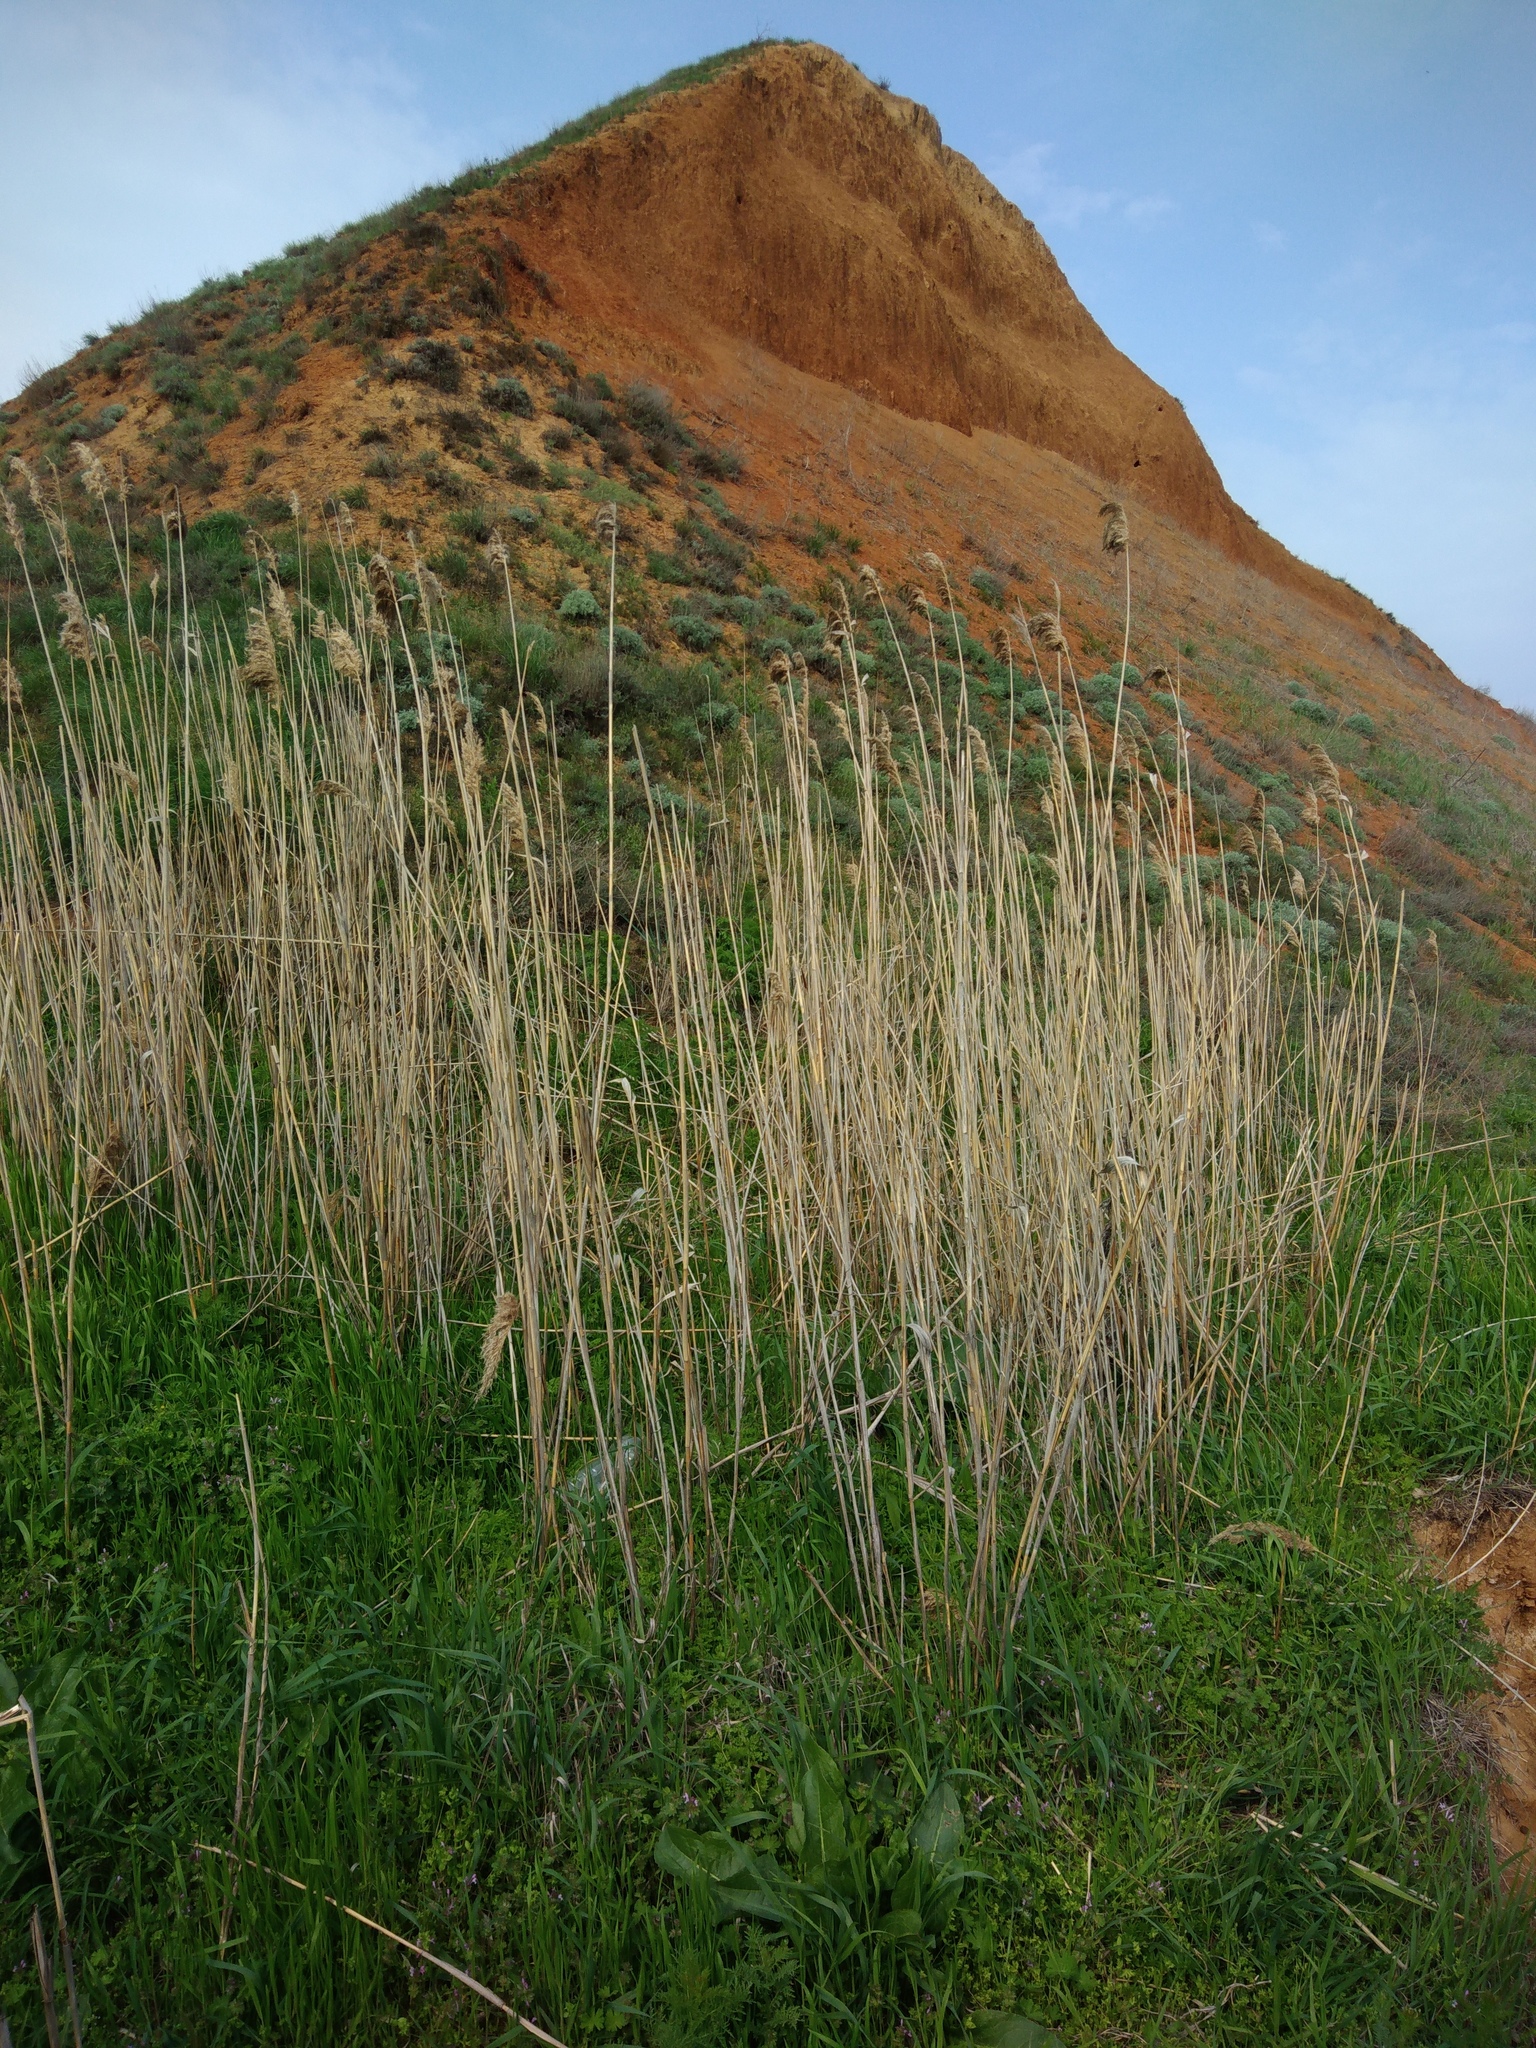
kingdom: Plantae
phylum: Tracheophyta
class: Liliopsida
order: Poales
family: Poaceae
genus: Phragmites
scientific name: Phragmites australis
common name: Common reed
